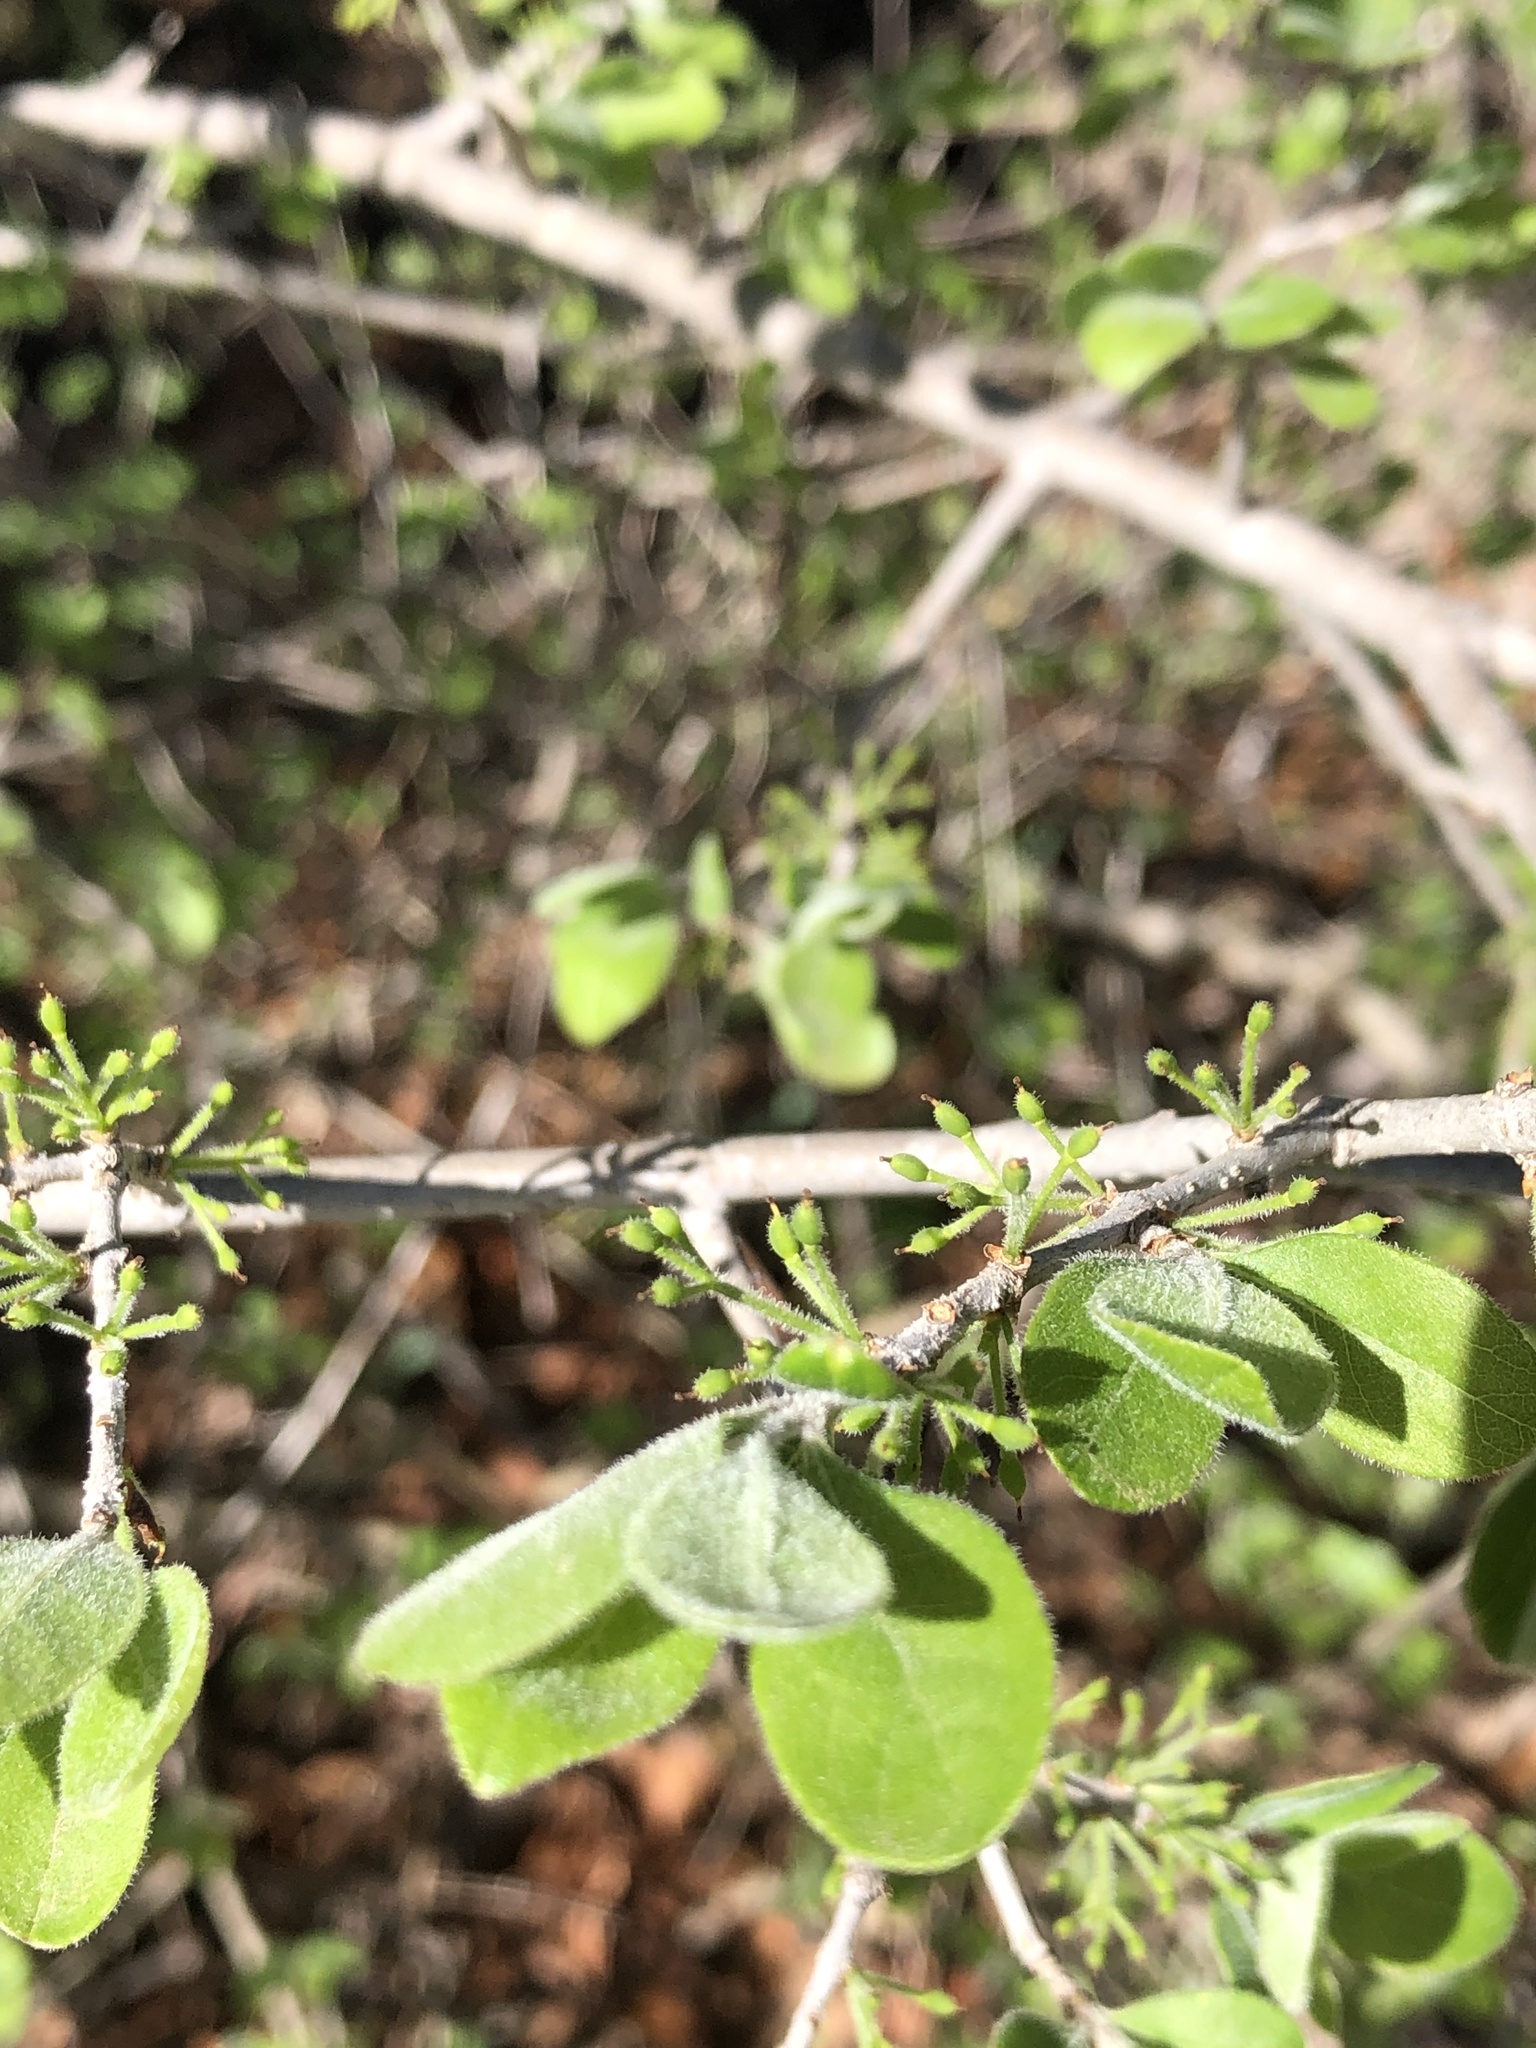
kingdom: Plantae
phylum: Tracheophyta
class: Magnoliopsida
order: Lamiales
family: Oleaceae
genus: Forestiera
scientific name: Forestiera pubescens
